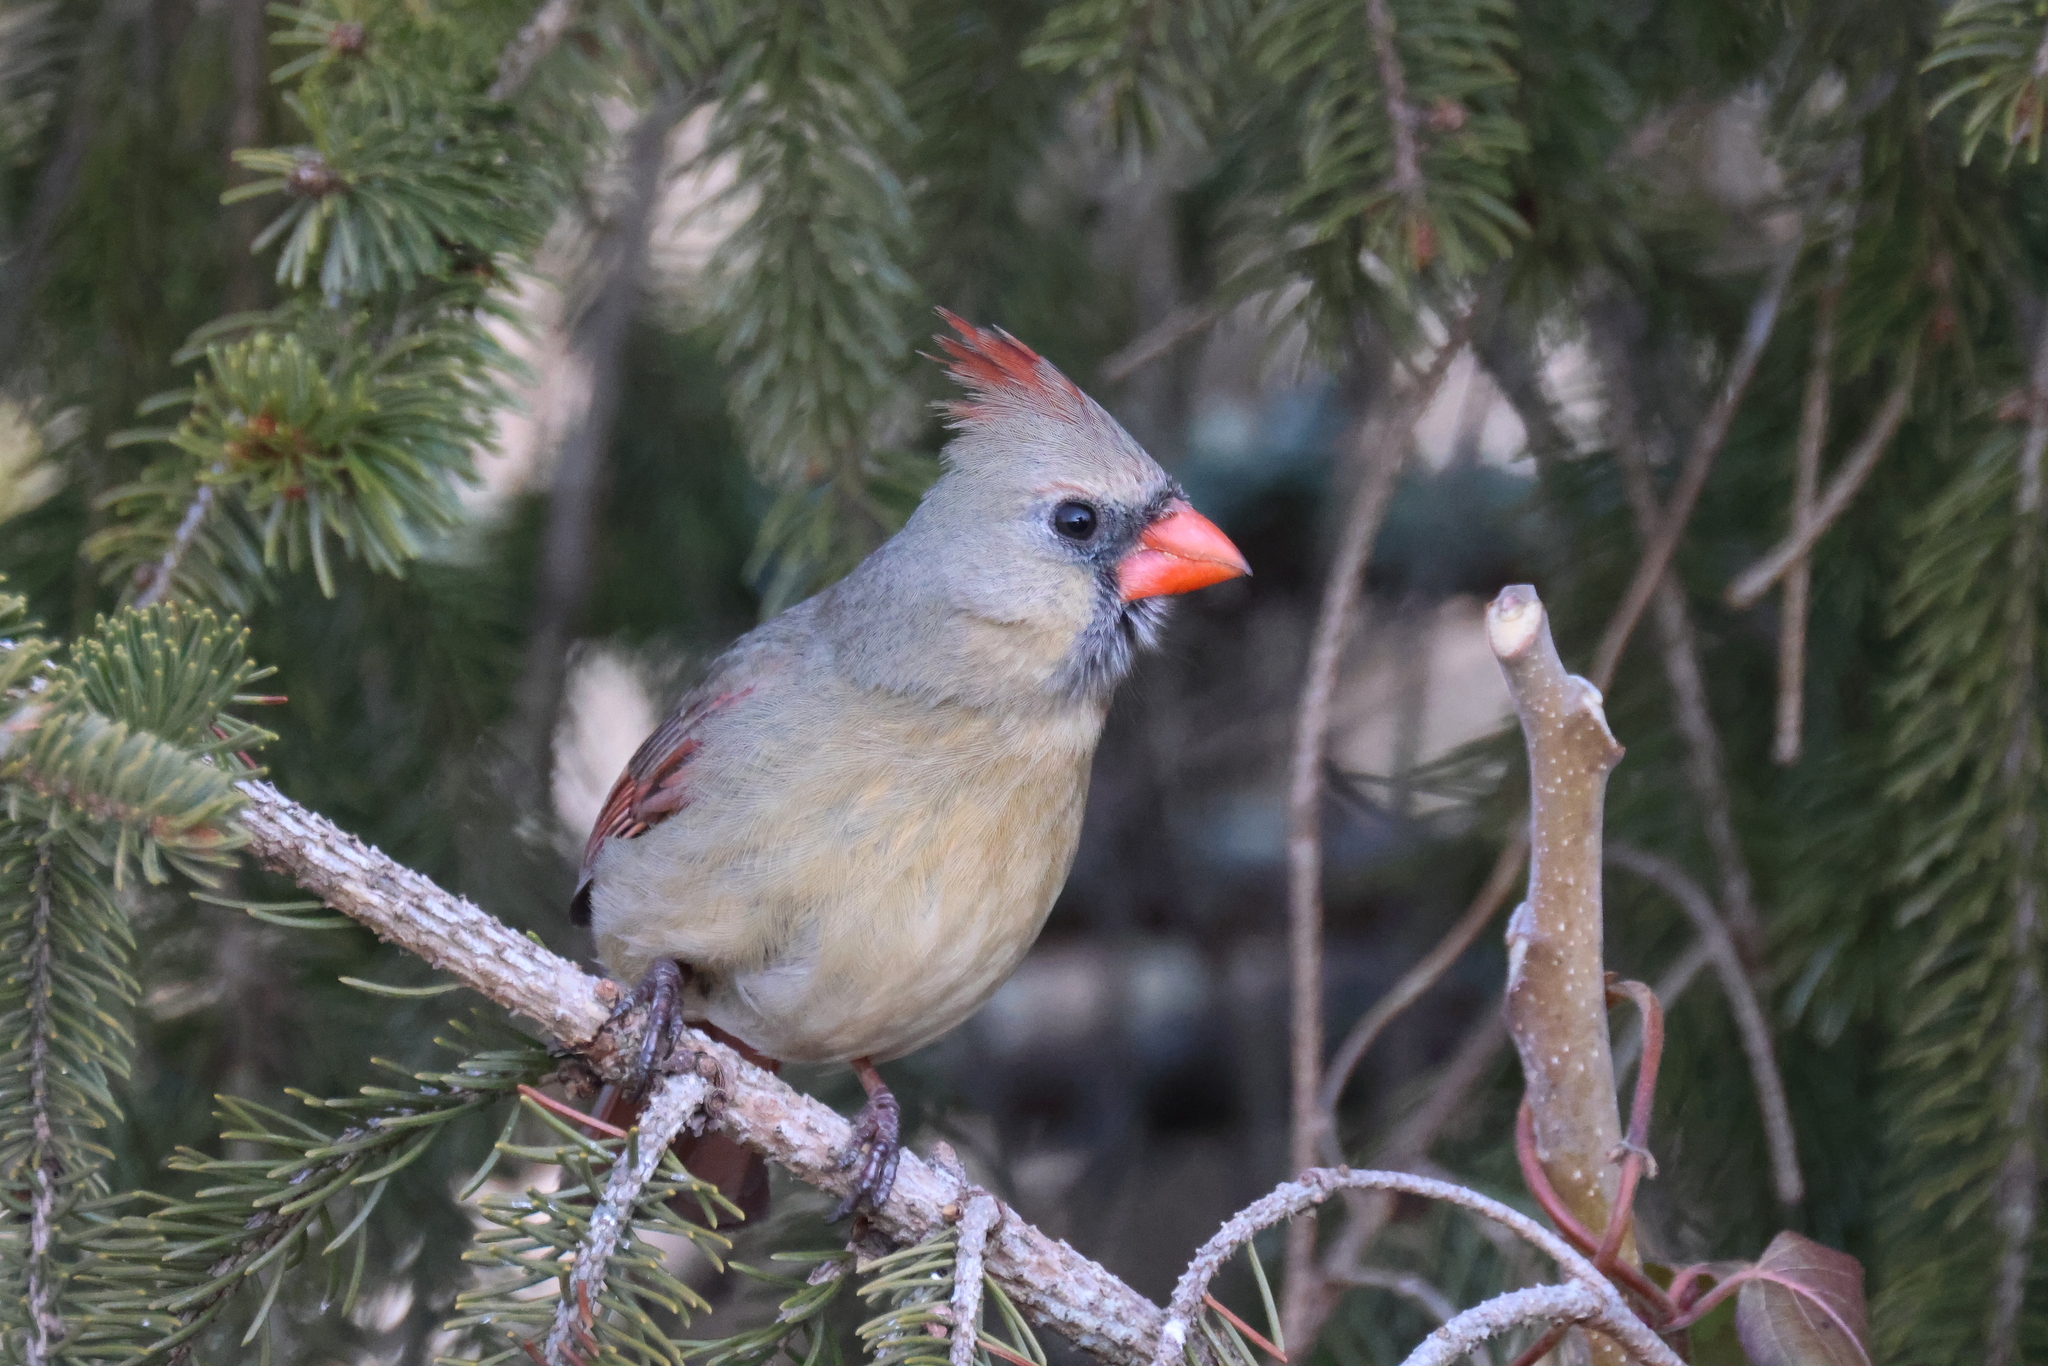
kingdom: Animalia
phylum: Chordata
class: Aves
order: Passeriformes
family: Cardinalidae
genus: Cardinalis
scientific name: Cardinalis cardinalis
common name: Northern cardinal
